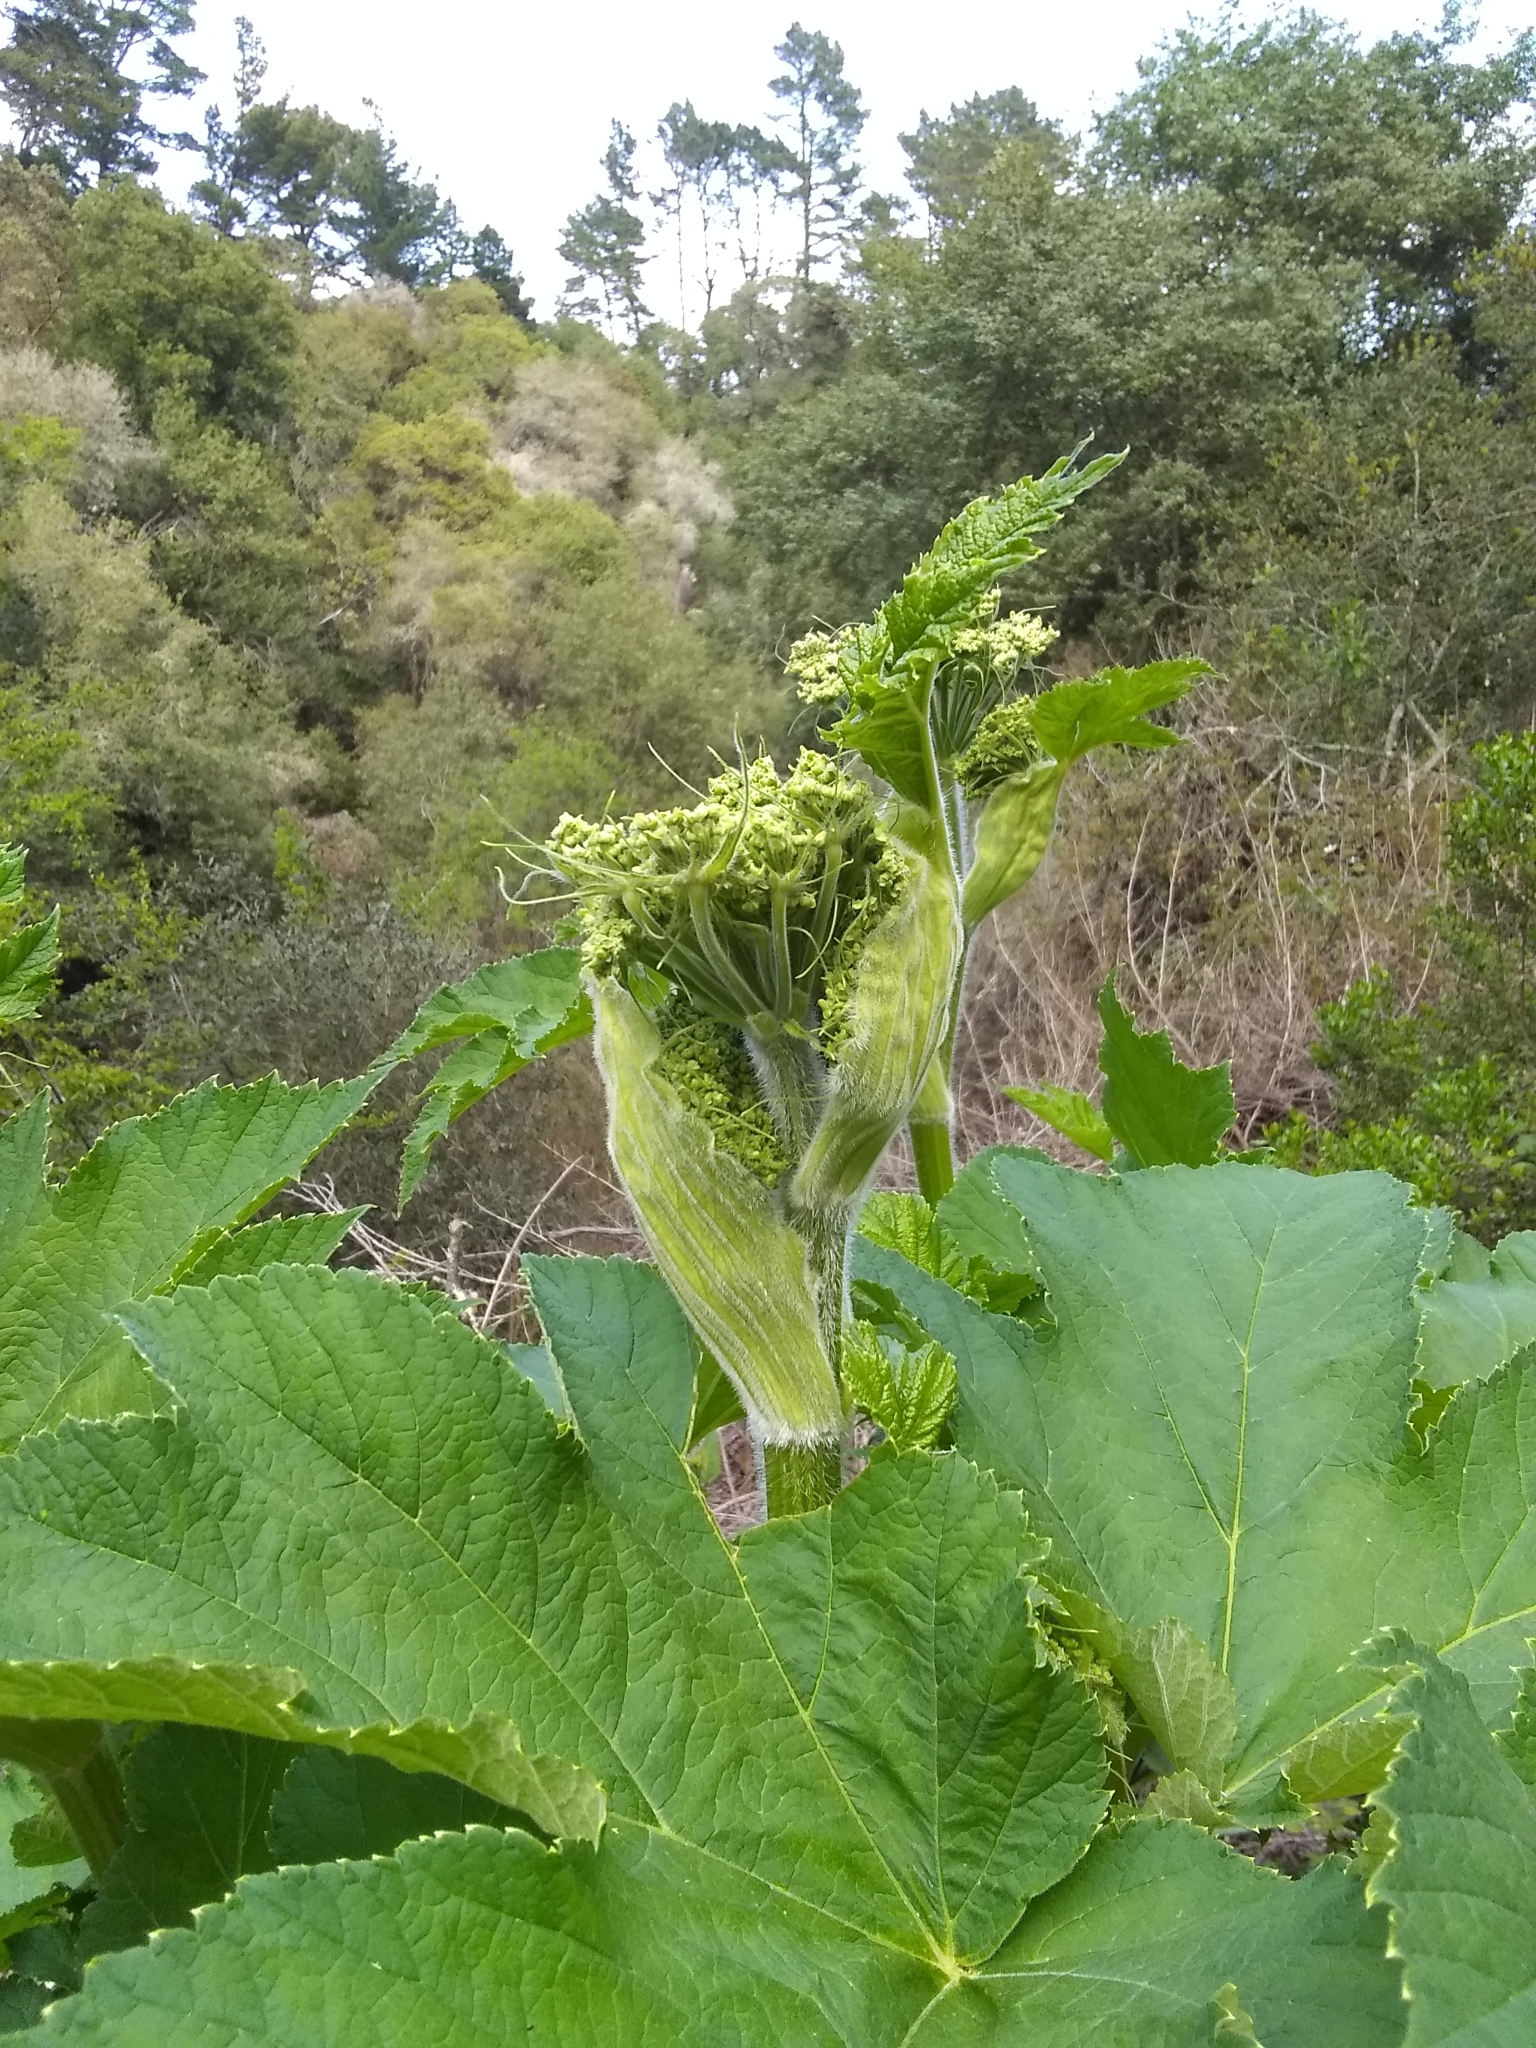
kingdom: Plantae
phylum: Tracheophyta
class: Magnoliopsida
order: Apiales
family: Apiaceae
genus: Heracleum
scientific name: Heracleum maximum
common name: American cow parsnip
